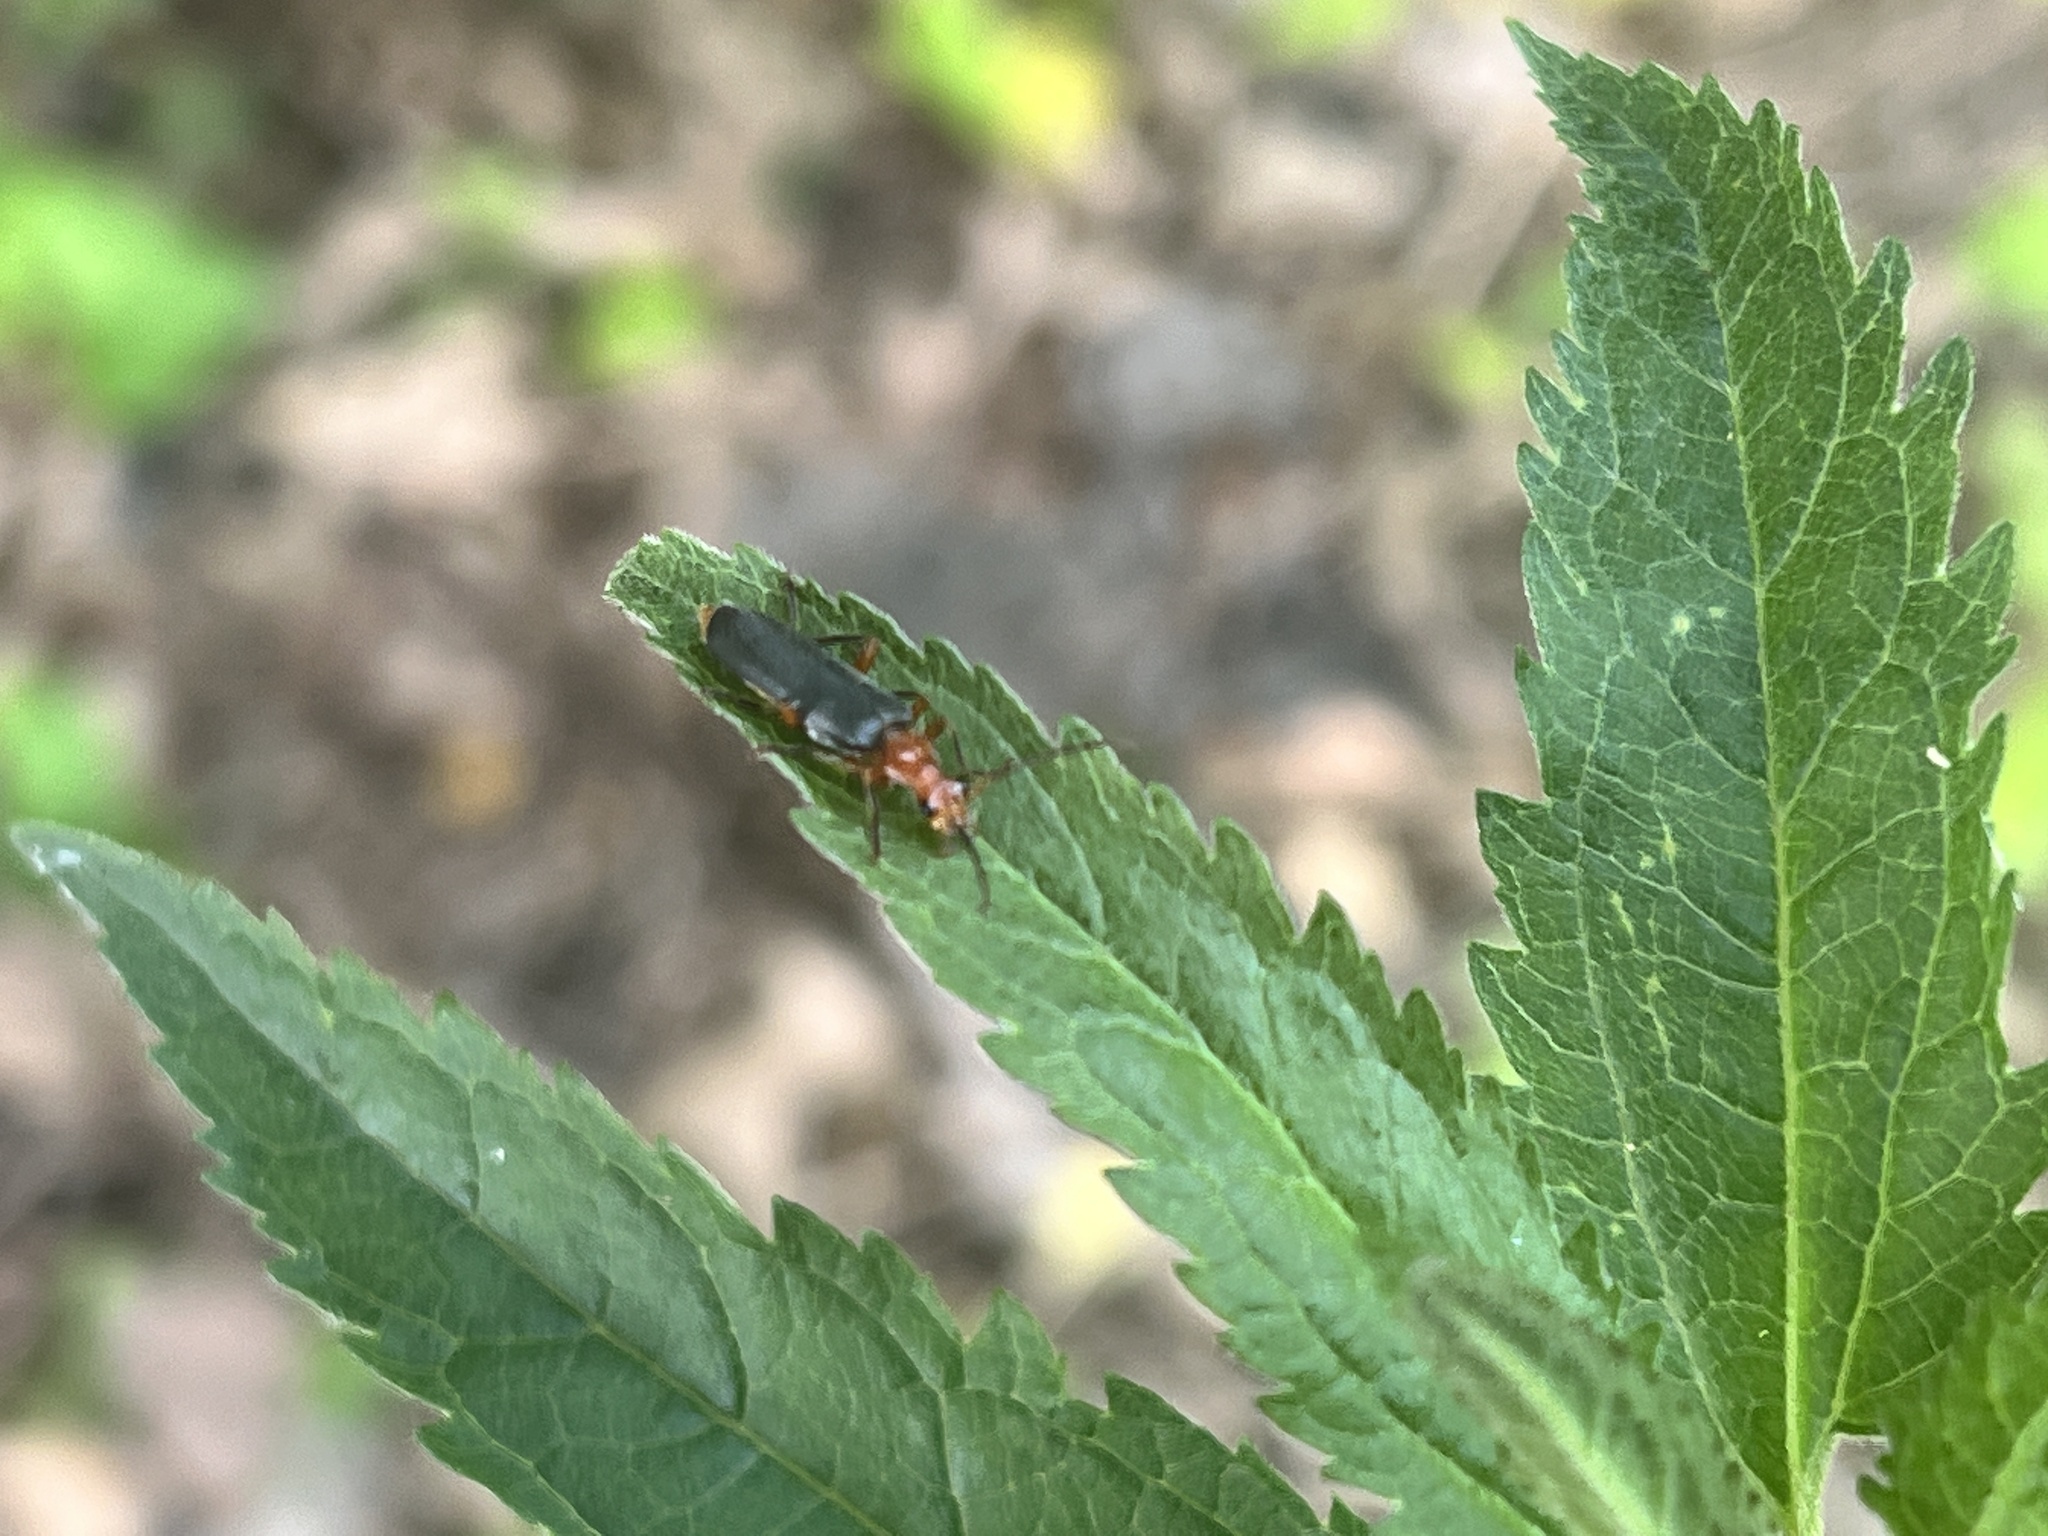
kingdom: Animalia
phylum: Arthropoda
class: Insecta
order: Coleoptera
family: Cantharidae
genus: Podabrus
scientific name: Podabrus tomentosus
